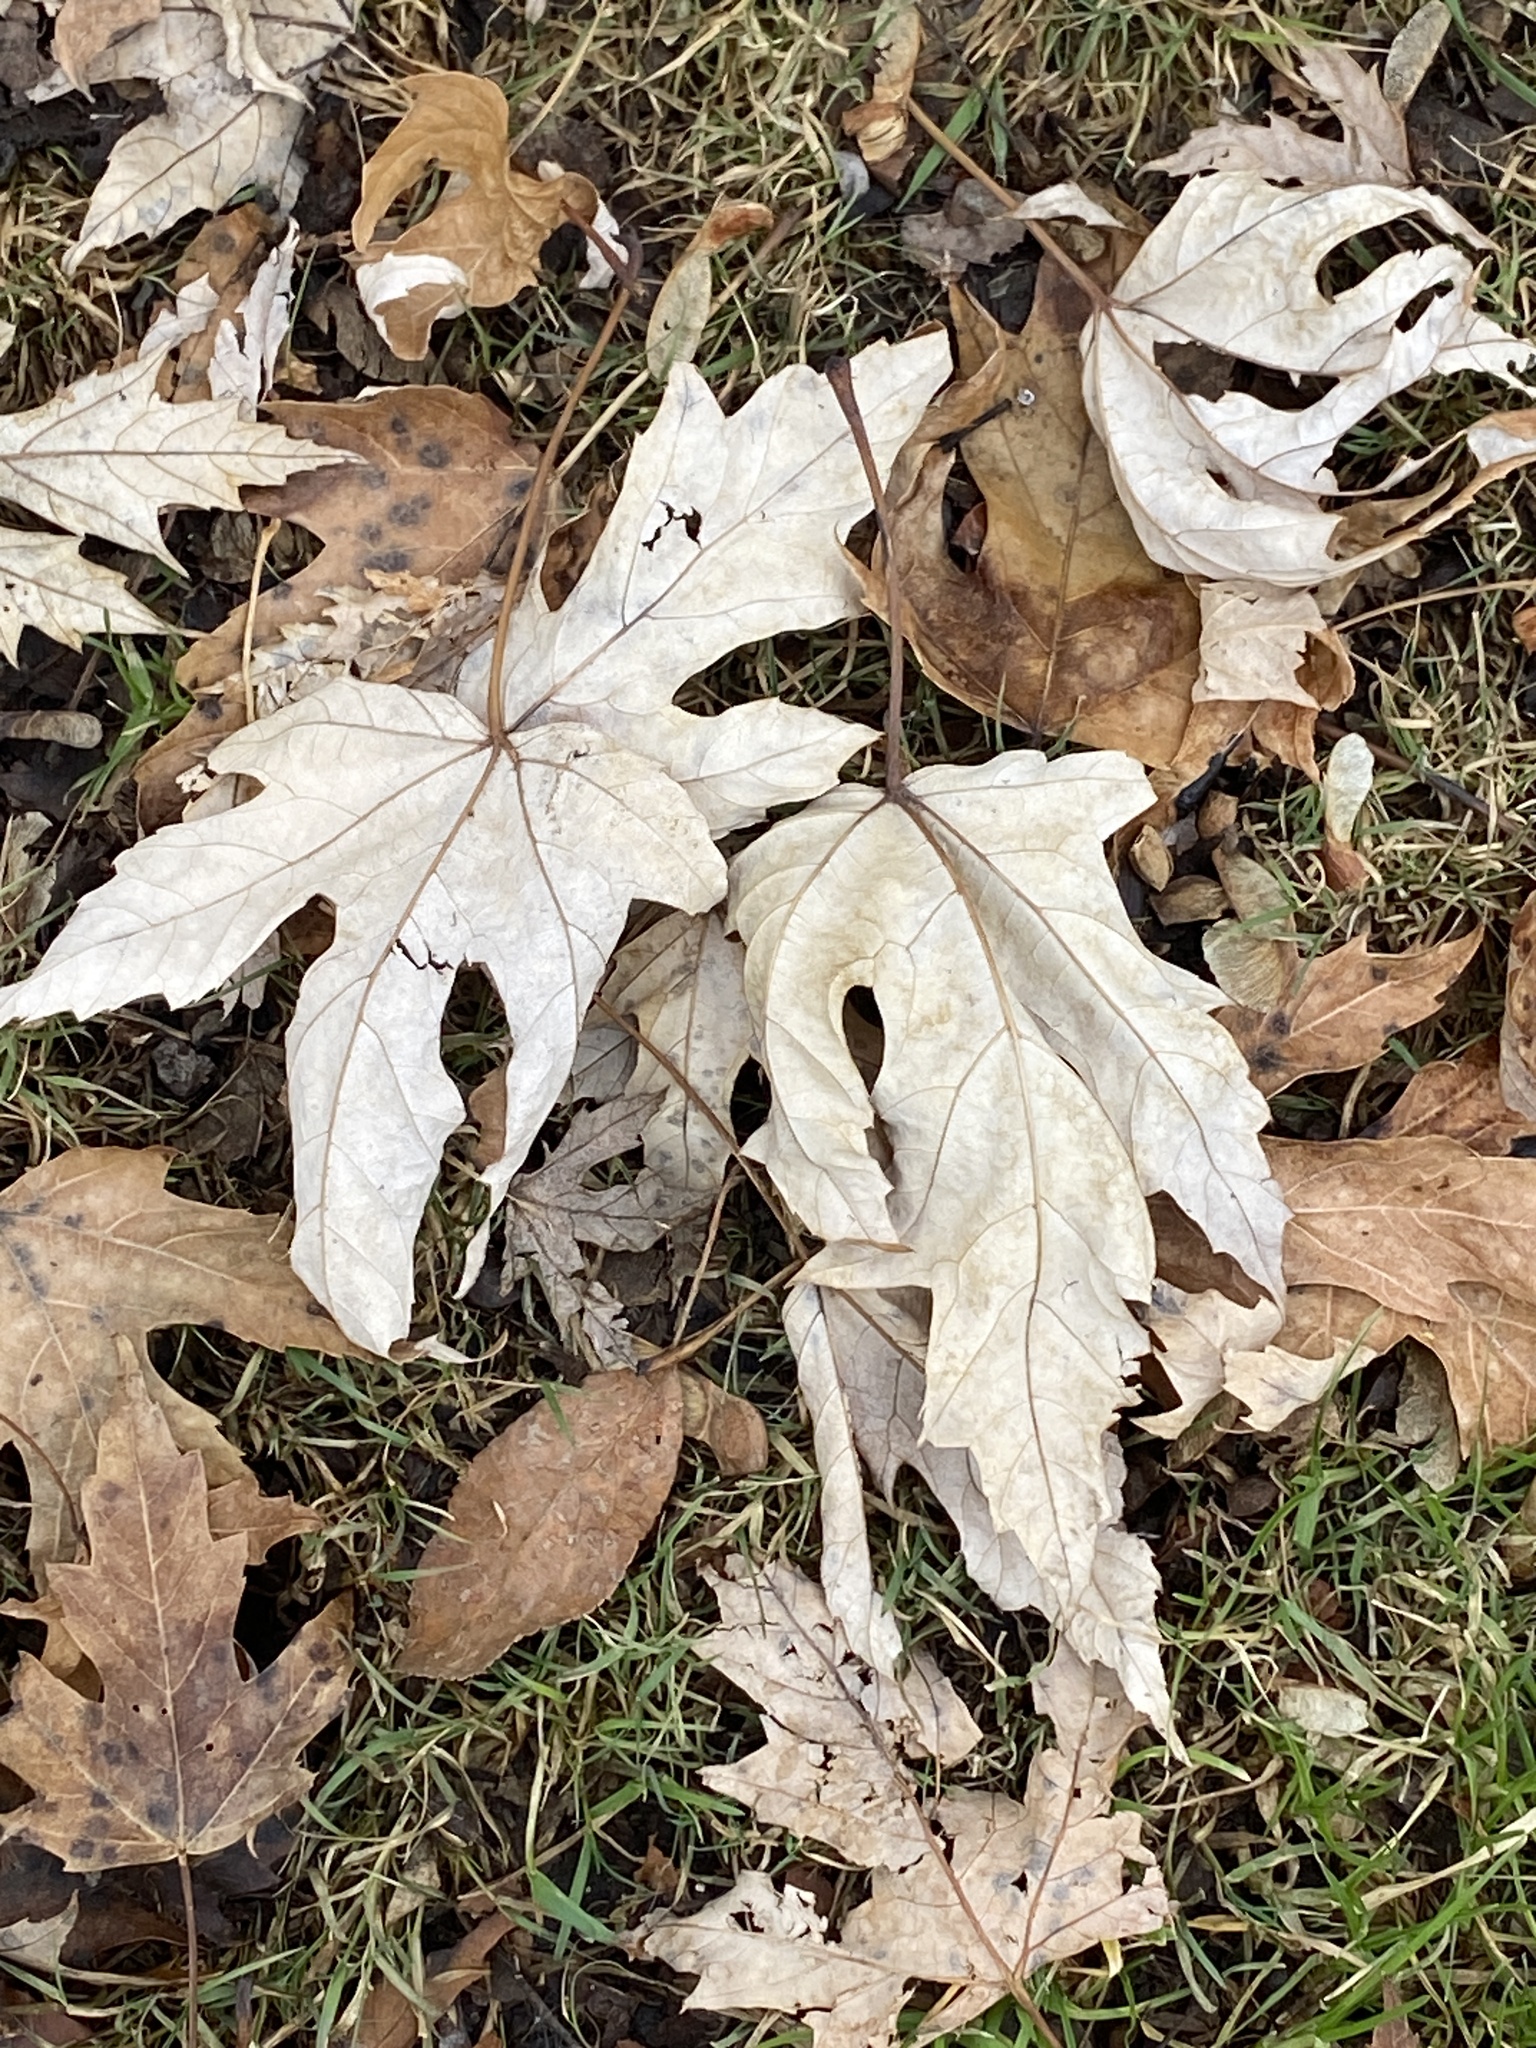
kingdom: Plantae
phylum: Tracheophyta
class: Magnoliopsida
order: Sapindales
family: Sapindaceae
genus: Acer
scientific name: Acer saccharinum
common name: Silver maple
